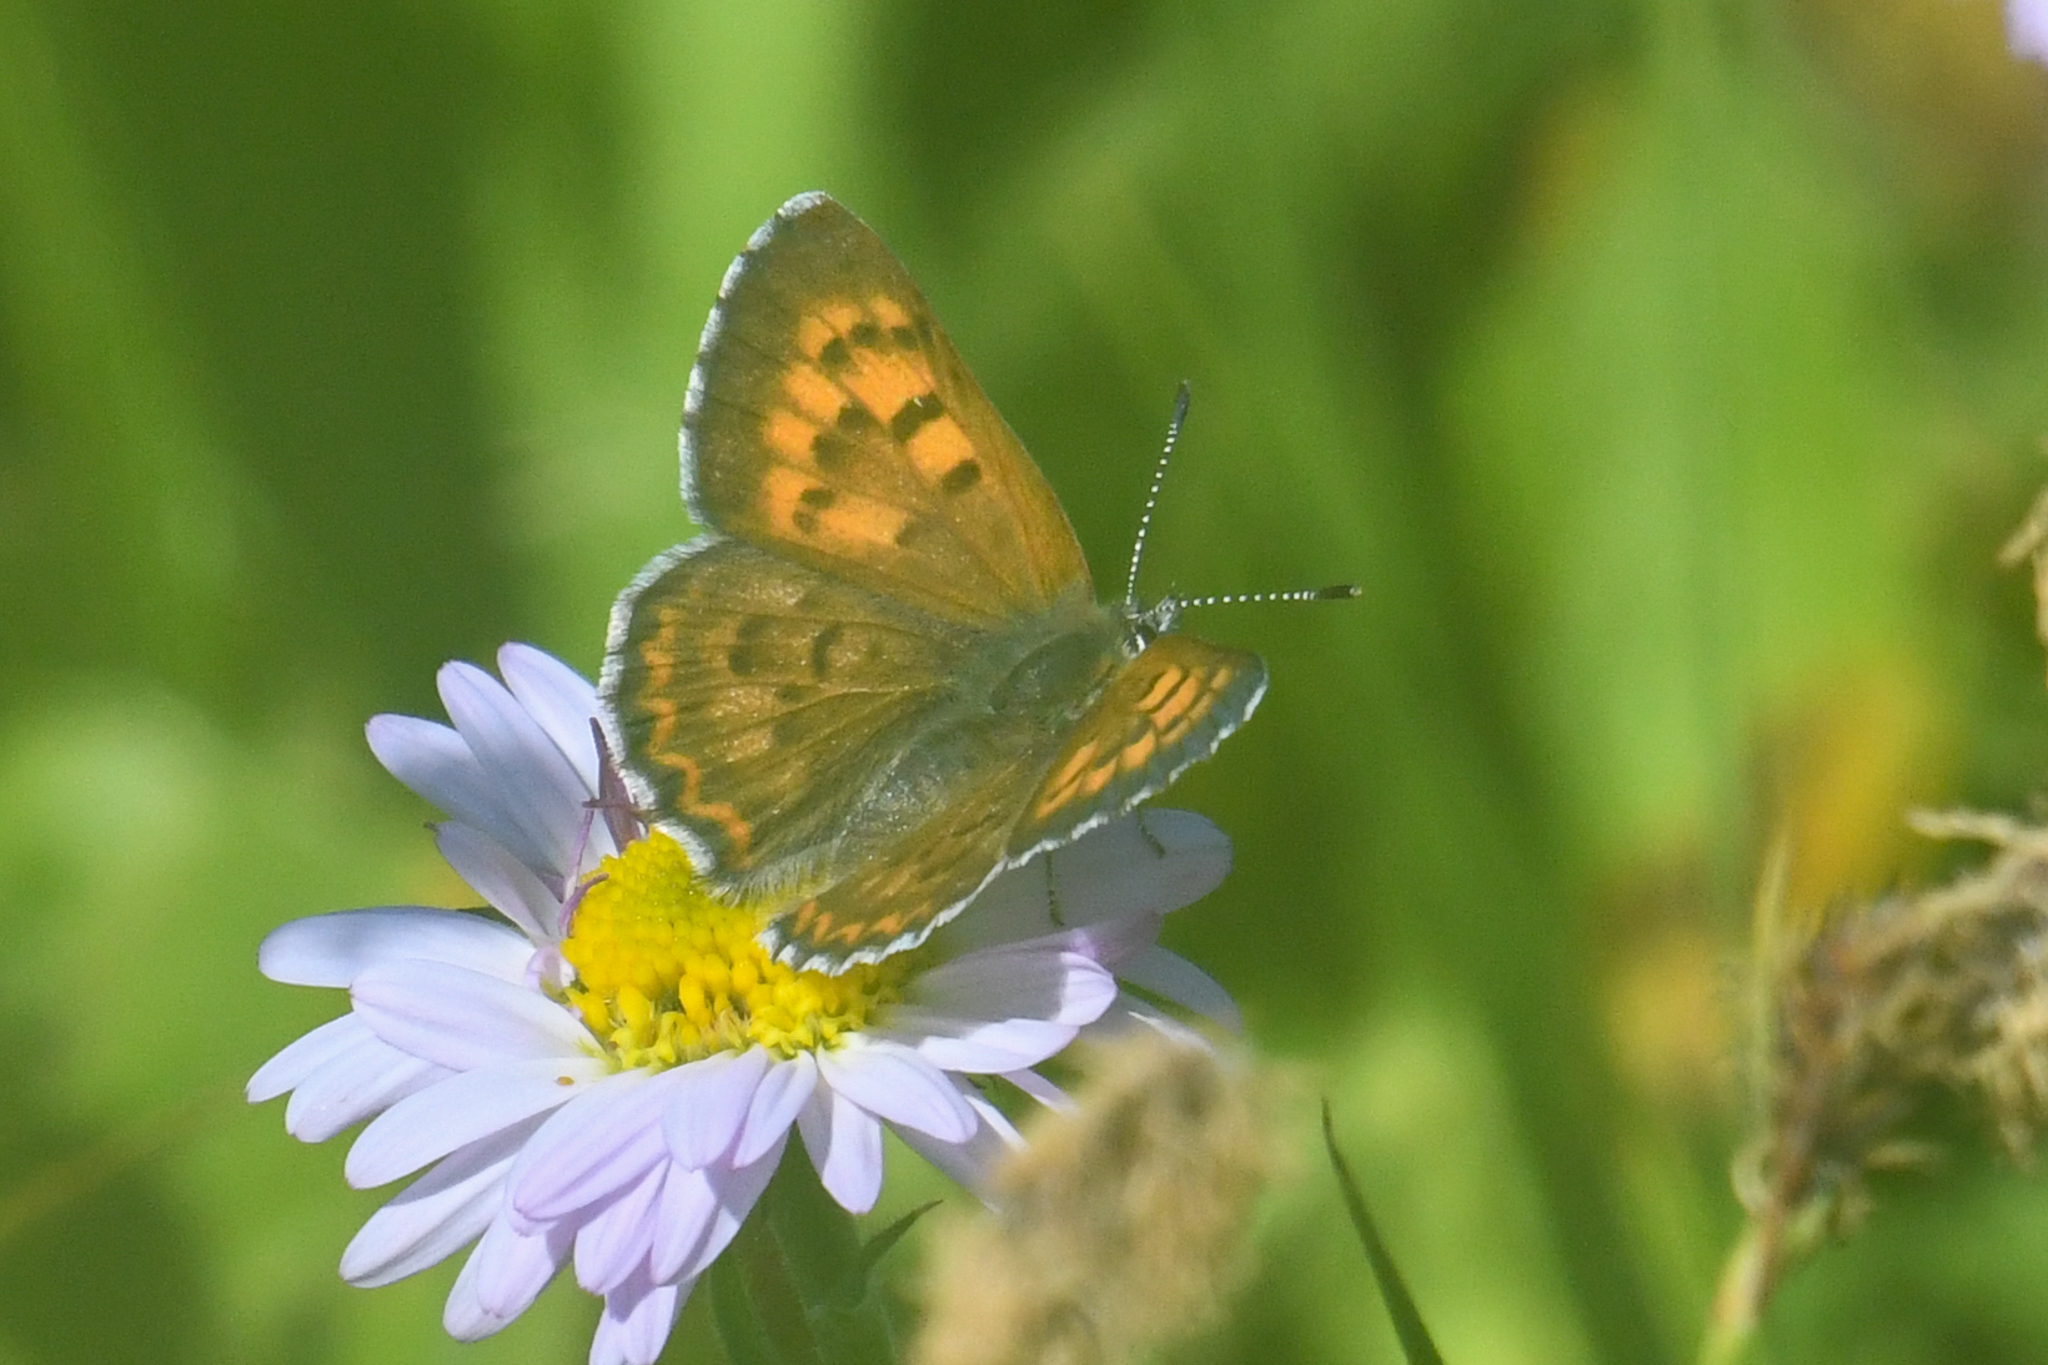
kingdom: Animalia
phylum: Arthropoda
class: Insecta
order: Lepidoptera
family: Lycaenidae
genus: Tharsalea
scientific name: Tharsalea mariposa
